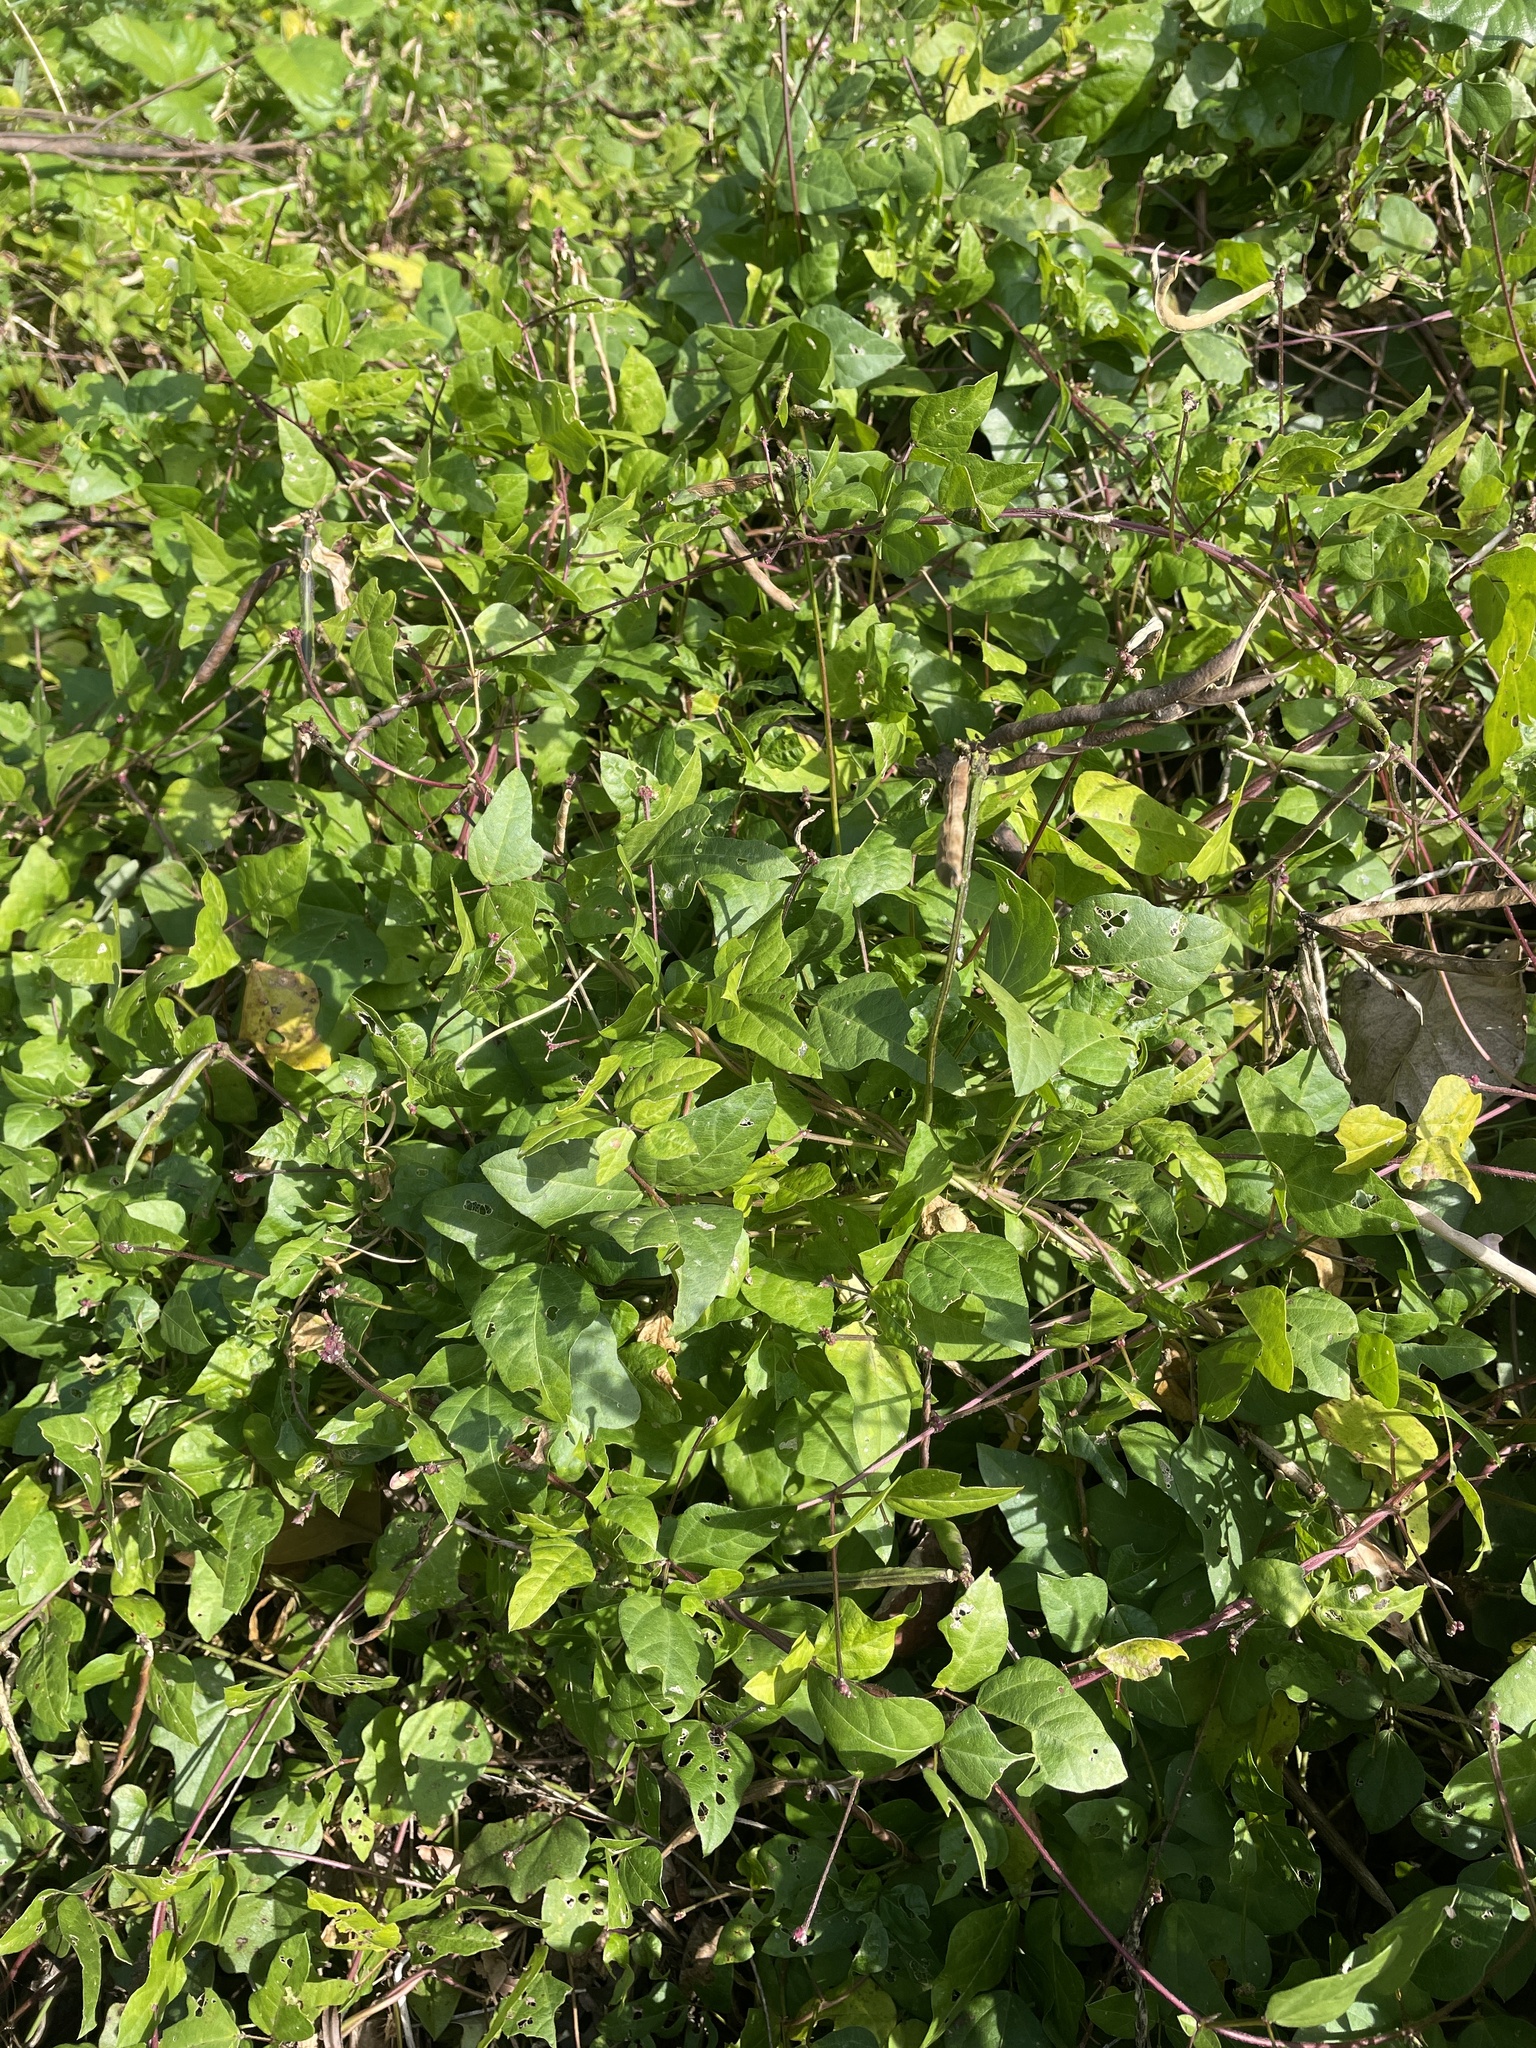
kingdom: Plantae
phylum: Tracheophyta
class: Magnoliopsida
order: Fabales
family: Fabaceae
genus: Strophostyles
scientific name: Strophostyles helvola
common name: Trailing wild bean
